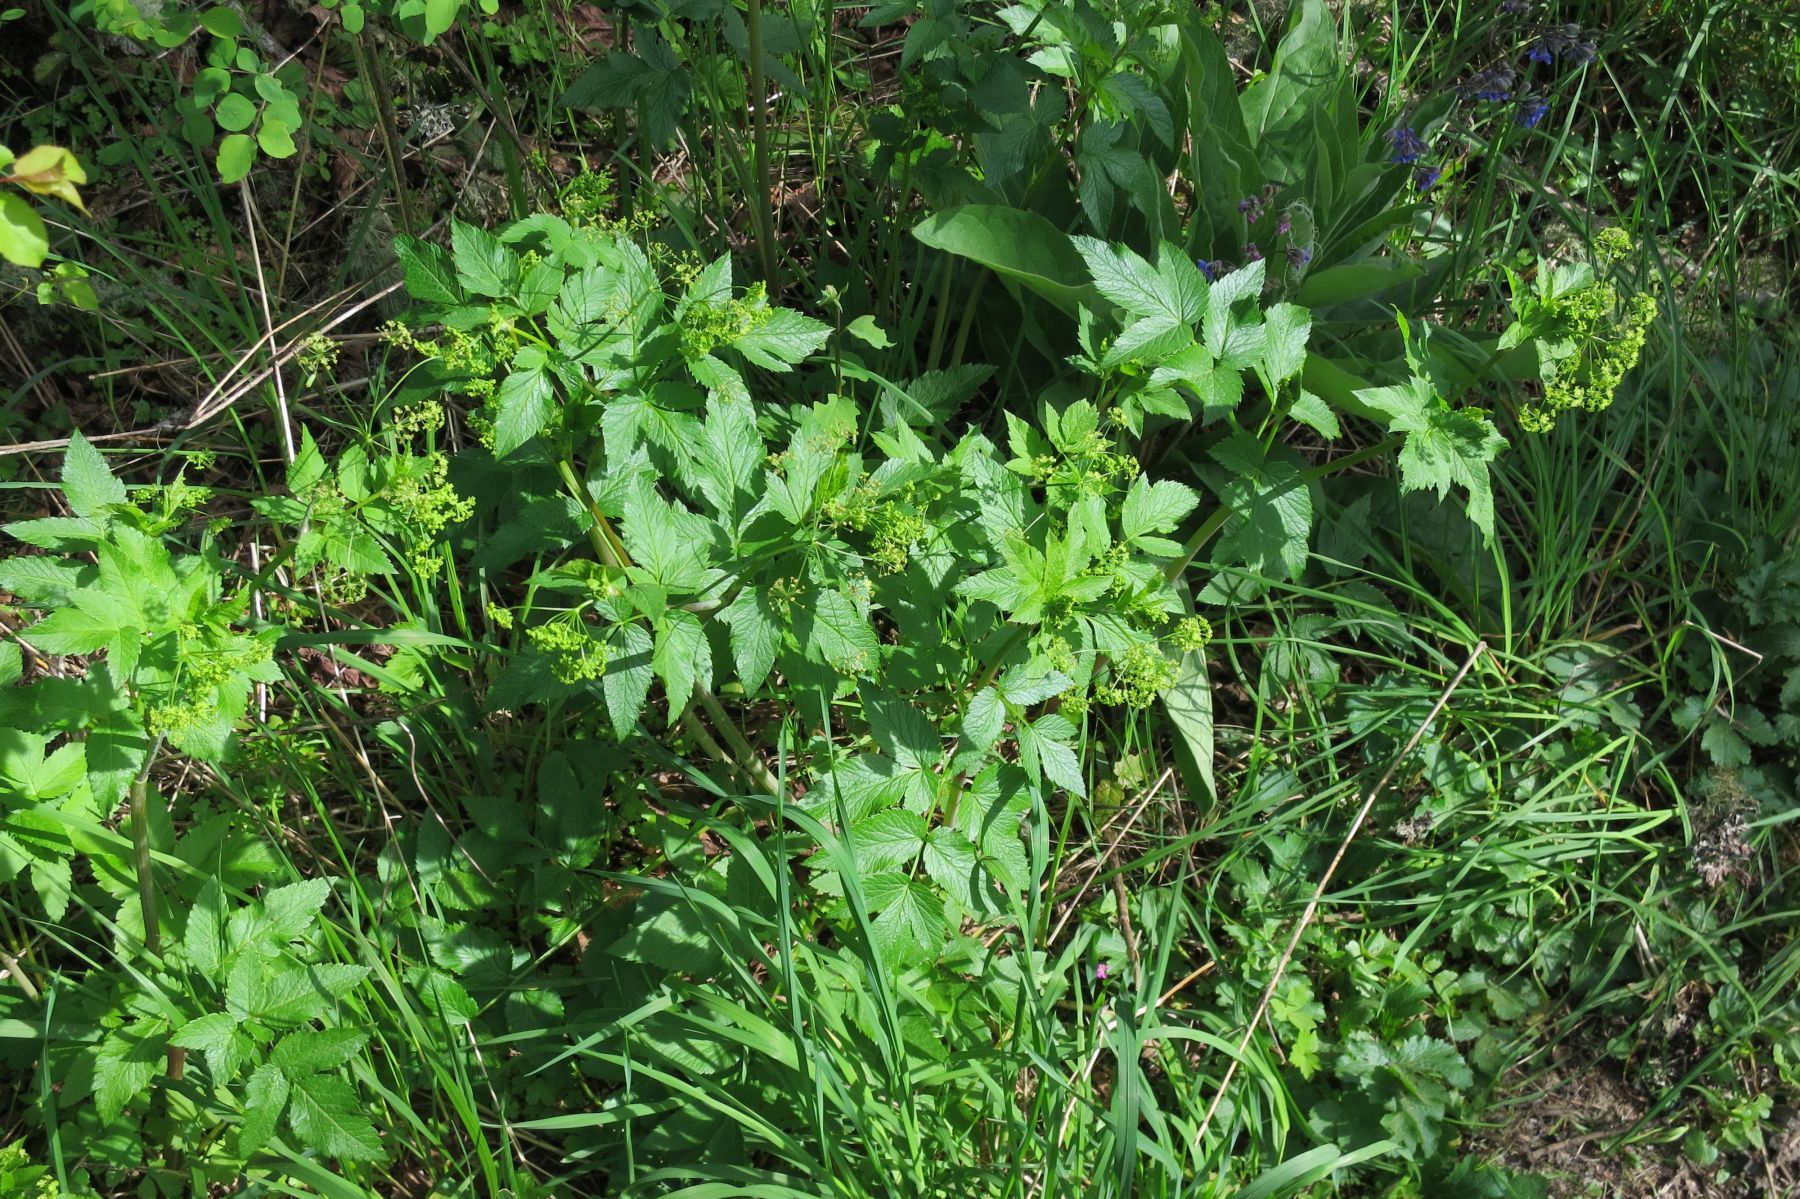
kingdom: Plantae
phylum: Tracheophyta
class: Magnoliopsida
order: Apiales
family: Apiaceae
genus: Osmorhiza
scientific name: Osmorhiza occidentalis
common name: Western sweet cicely
